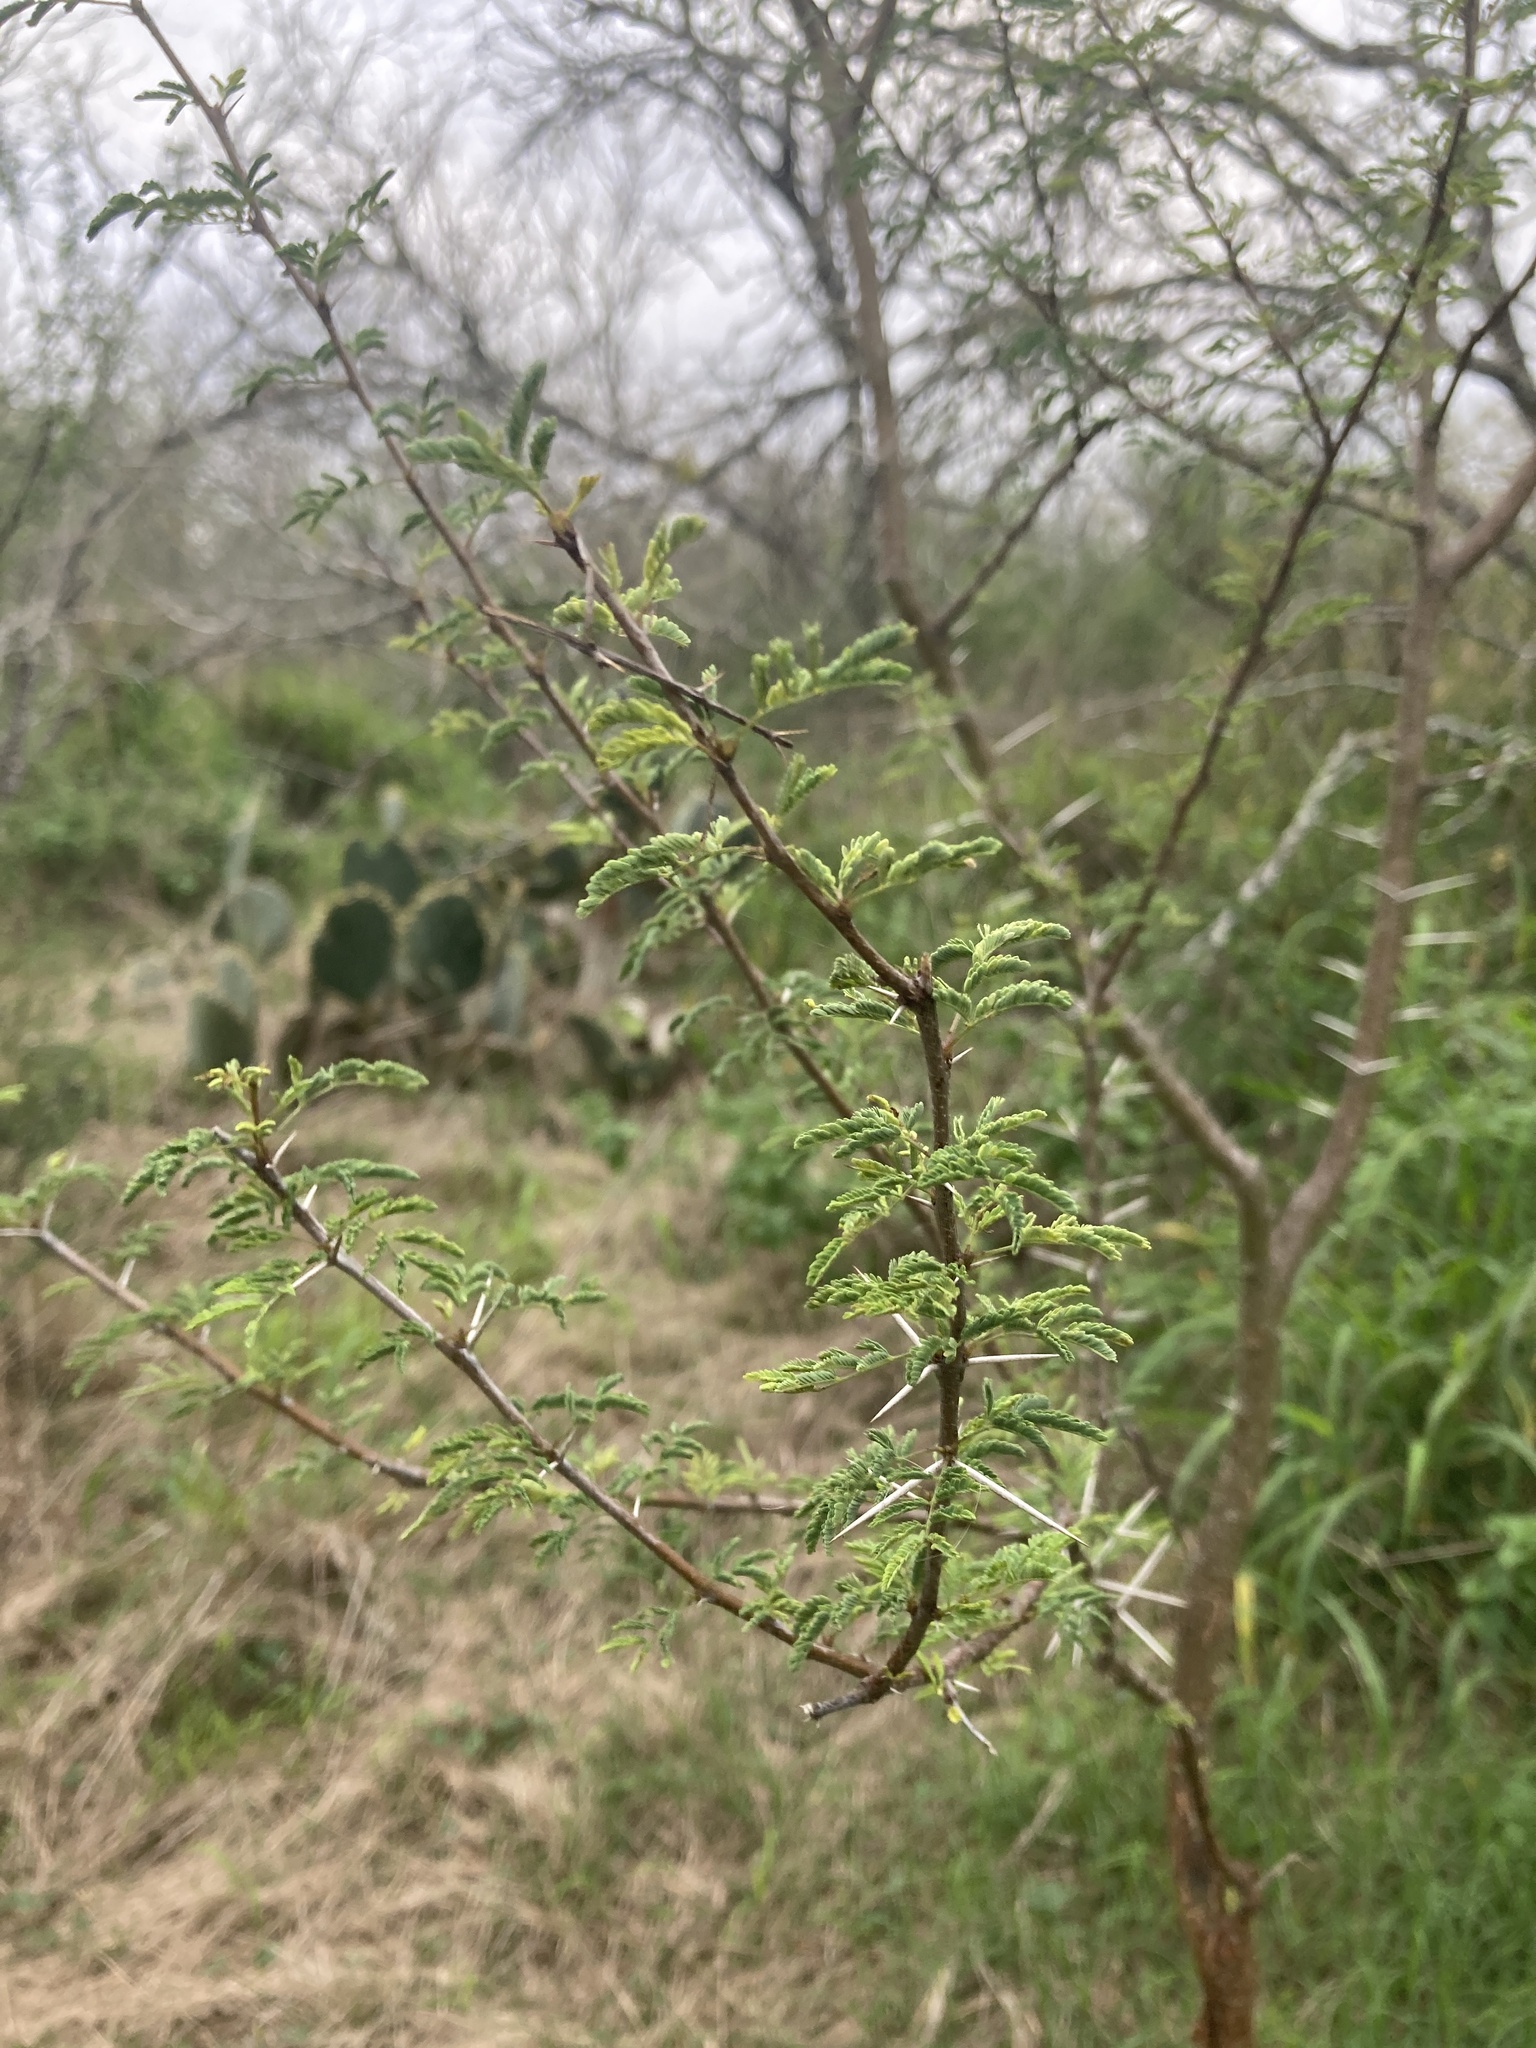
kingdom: Plantae
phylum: Tracheophyta
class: Magnoliopsida
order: Fabales
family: Fabaceae
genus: Vachellia
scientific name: Vachellia farnesiana
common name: Sweet acacia
